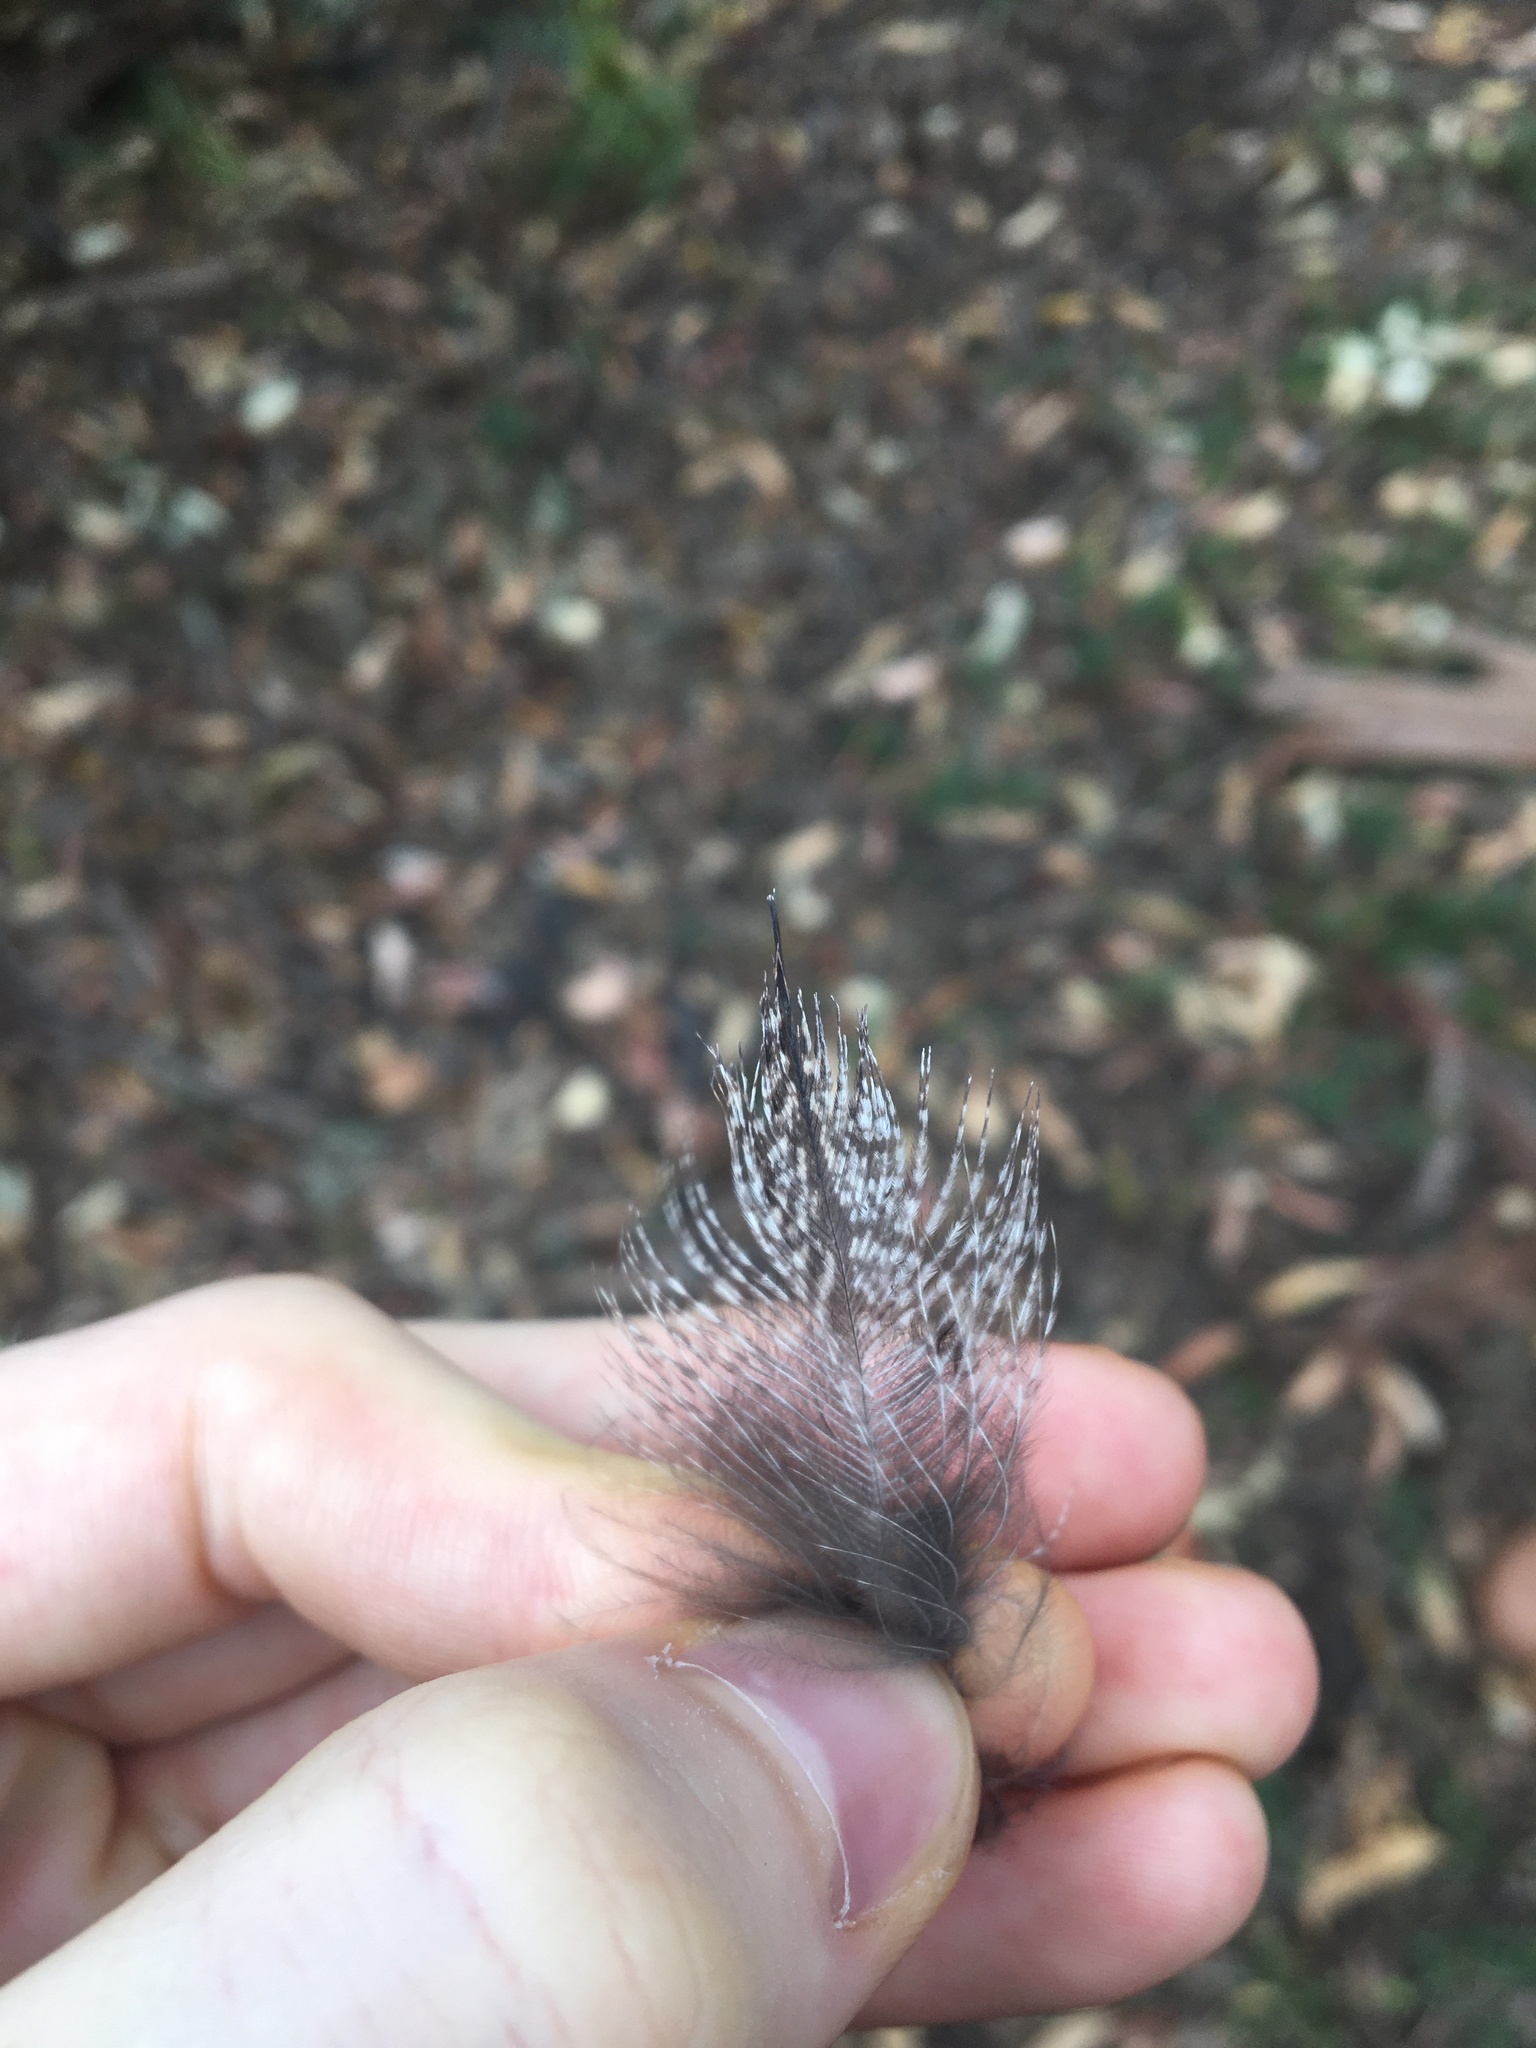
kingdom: Animalia
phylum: Chordata
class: Aves
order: Caprimulgiformes
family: Podargidae
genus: Podargus
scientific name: Podargus strigoides
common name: Tawny frogmouth
